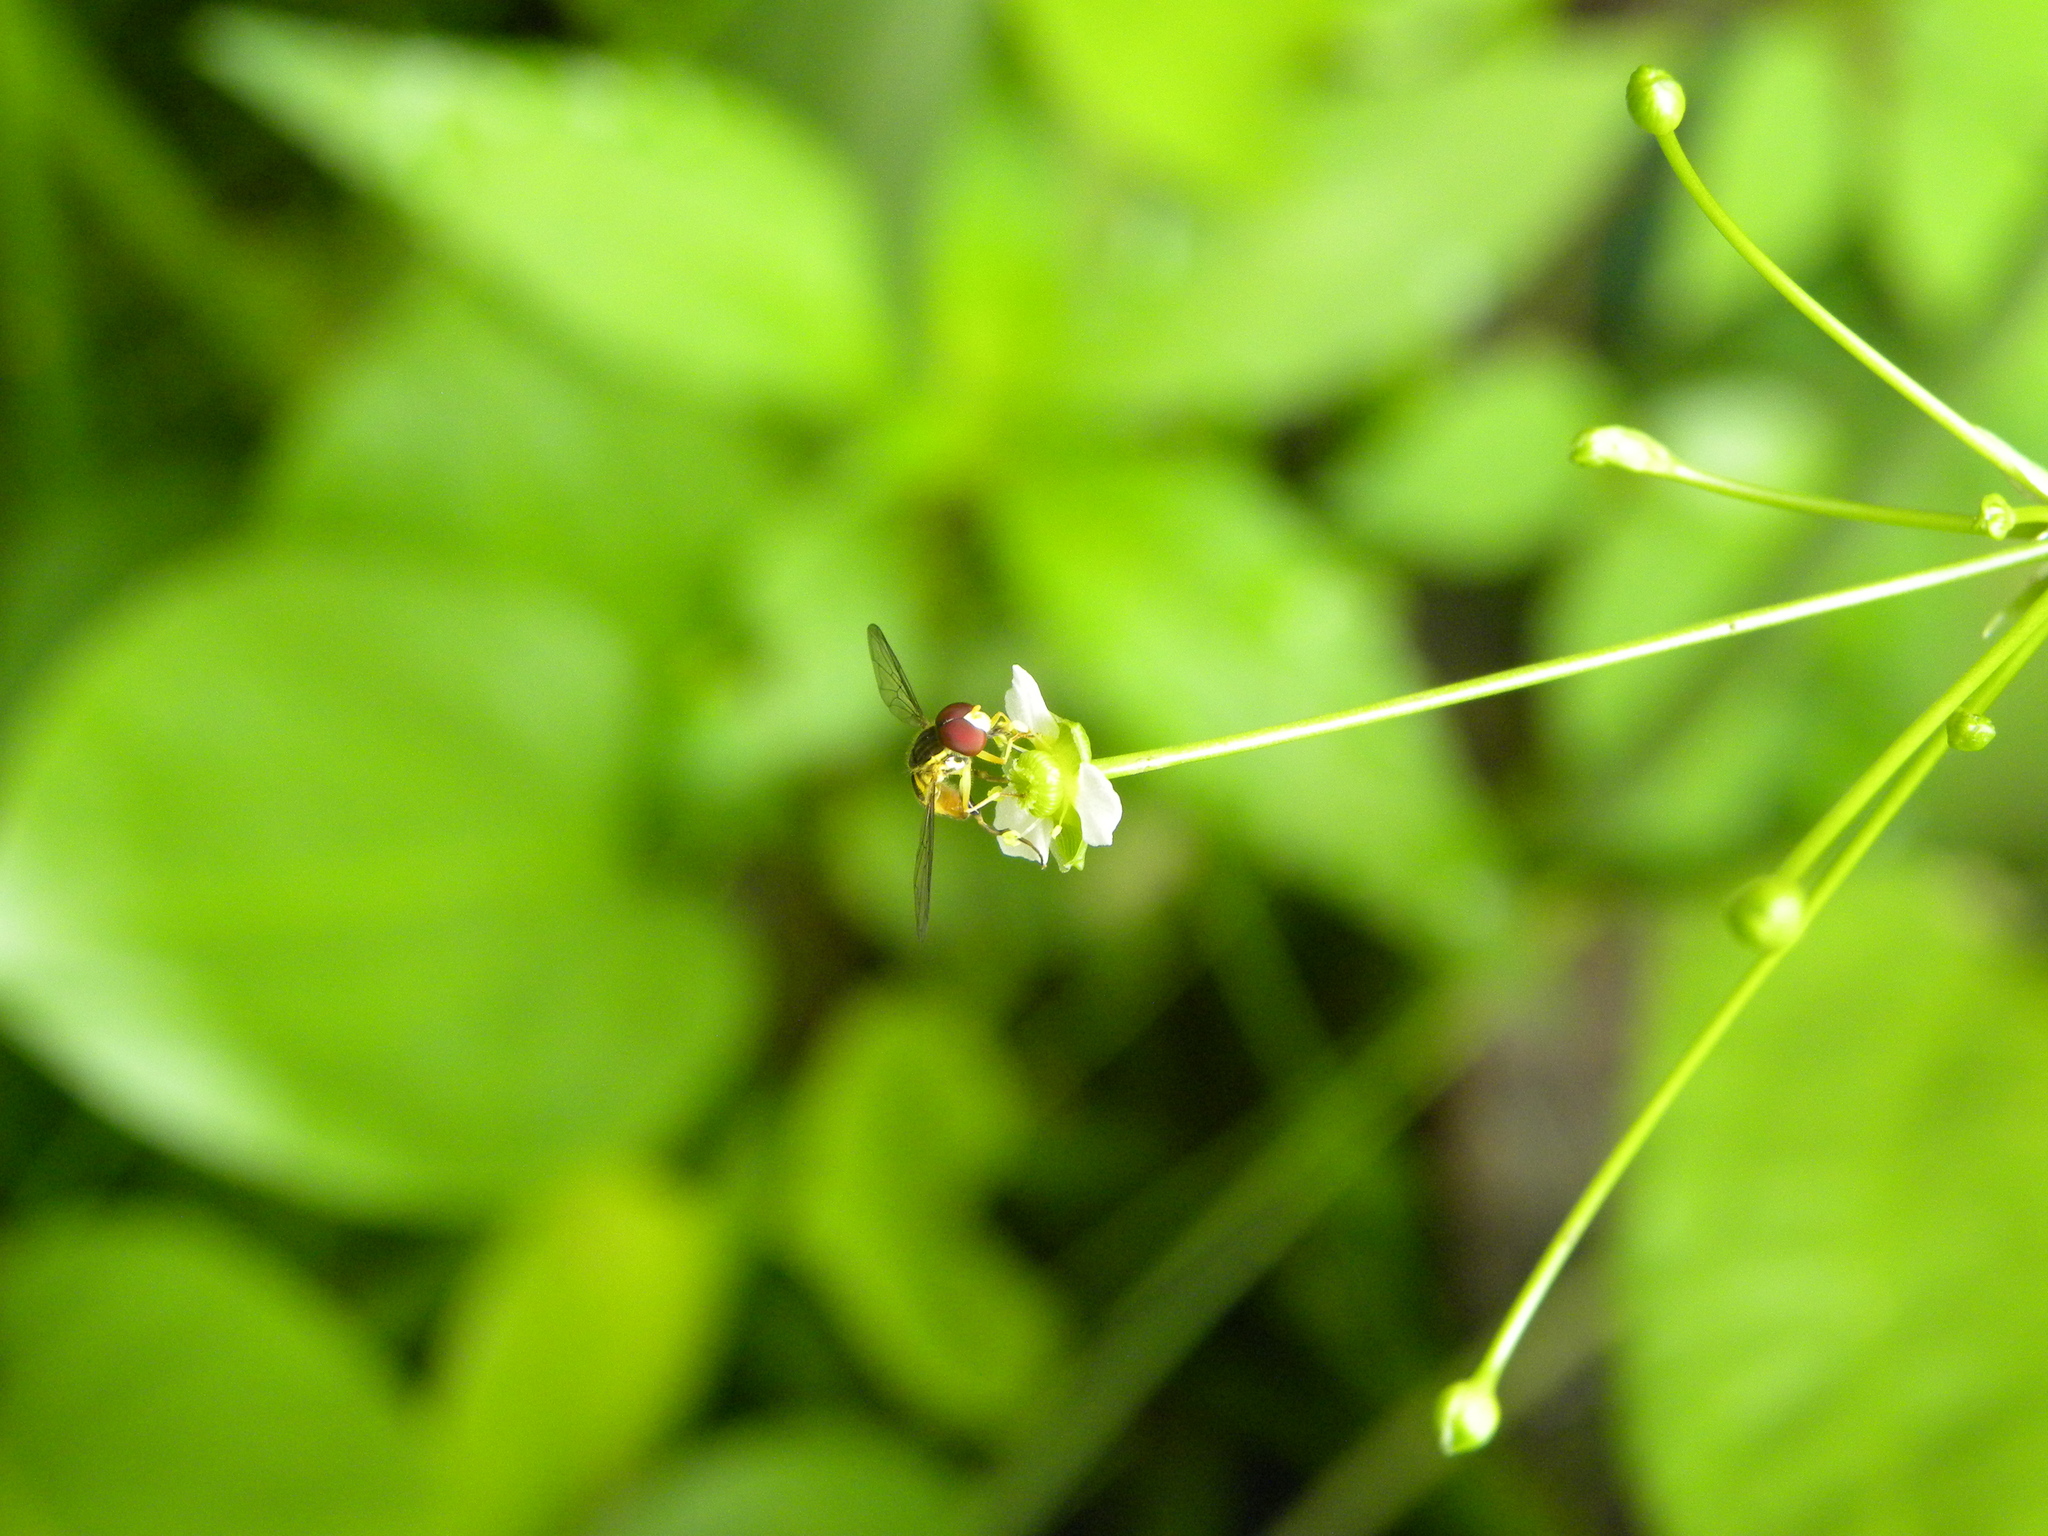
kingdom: Animalia
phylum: Arthropoda
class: Insecta
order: Diptera
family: Syrphidae
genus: Toxomerus
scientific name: Toxomerus geminatus
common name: Eastern calligrapher
